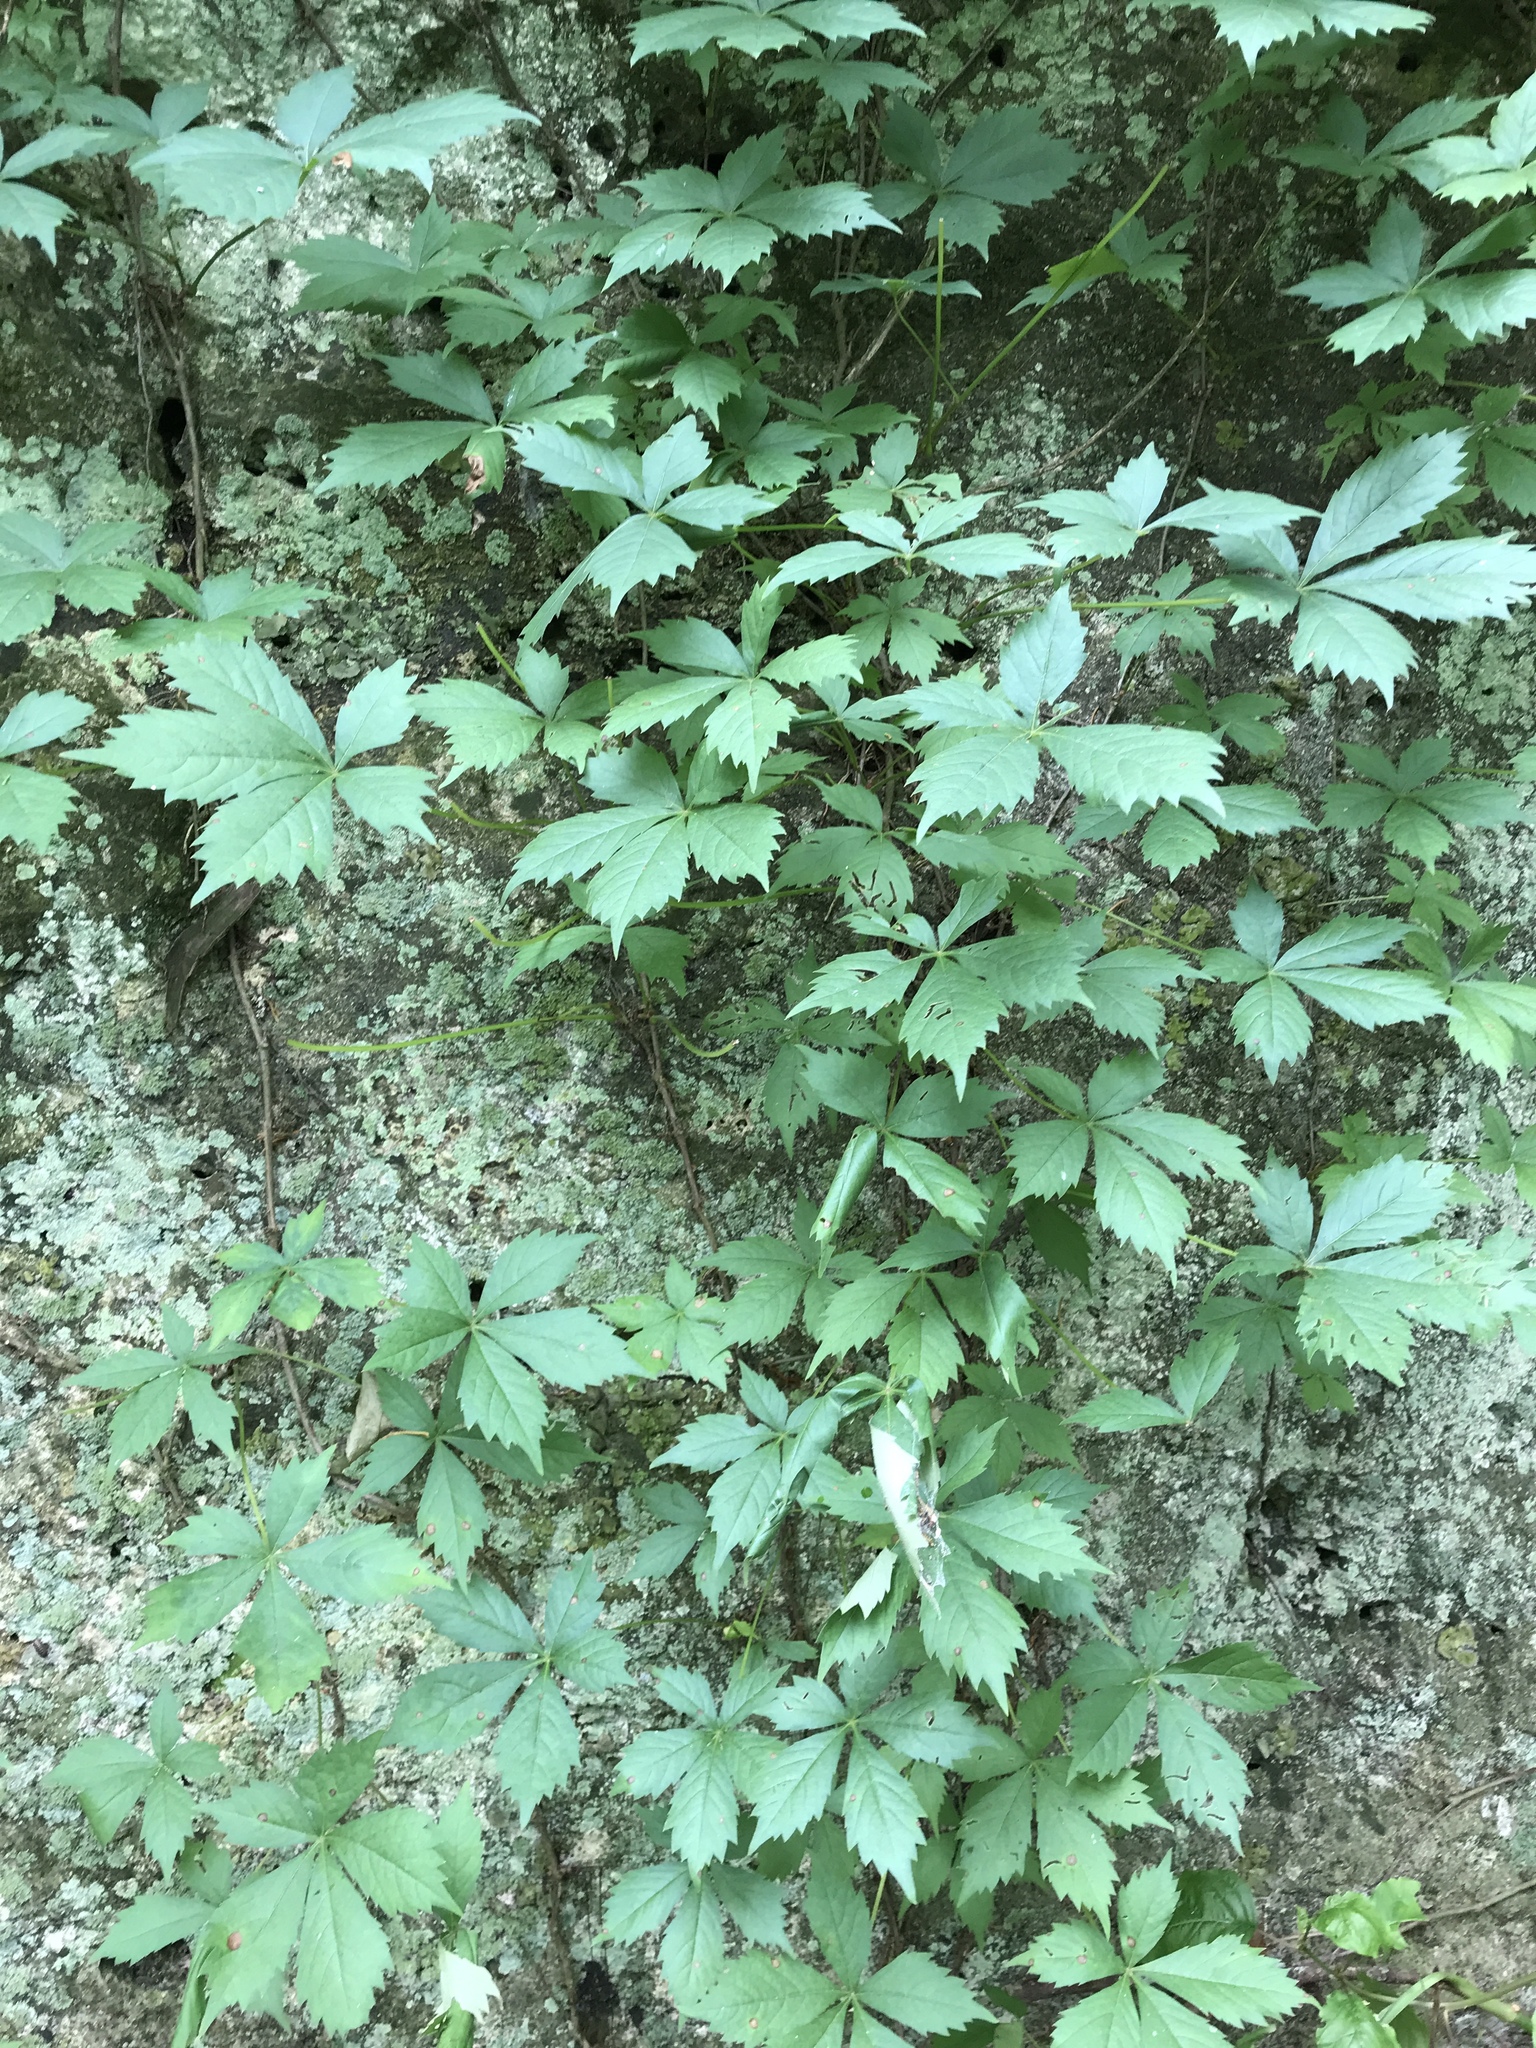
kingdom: Plantae
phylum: Tracheophyta
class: Magnoliopsida
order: Vitales
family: Vitaceae
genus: Parthenocissus
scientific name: Parthenocissus quinquefolia
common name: Virginia-creeper
